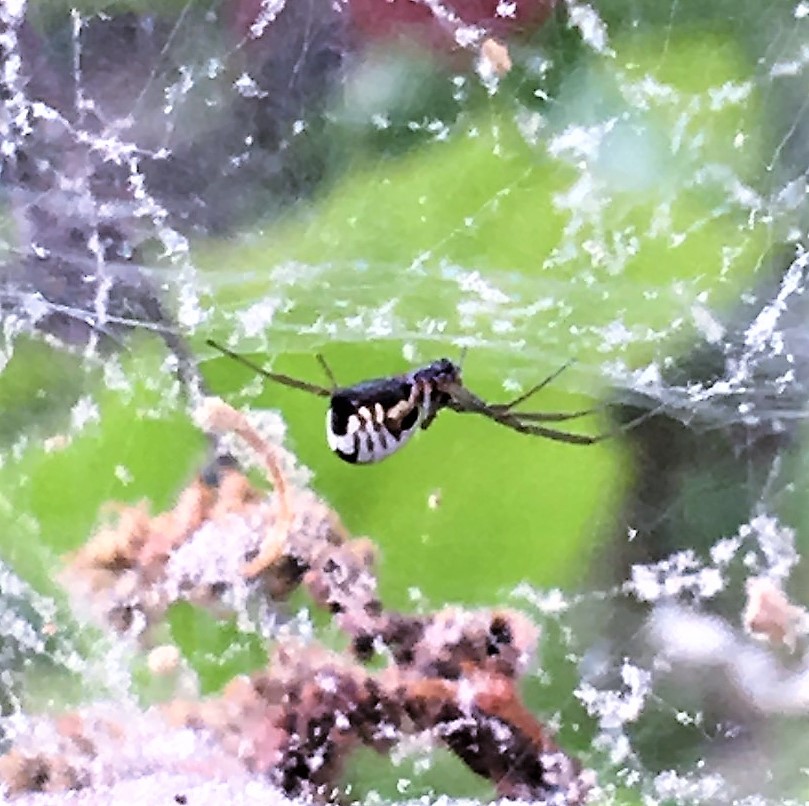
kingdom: Animalia
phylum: Arthropoda
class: Arachnida
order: Araneae
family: Linyphiidae
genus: Frontinella
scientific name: Frontinella pyramitela
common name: Bowl-and-doily spider
